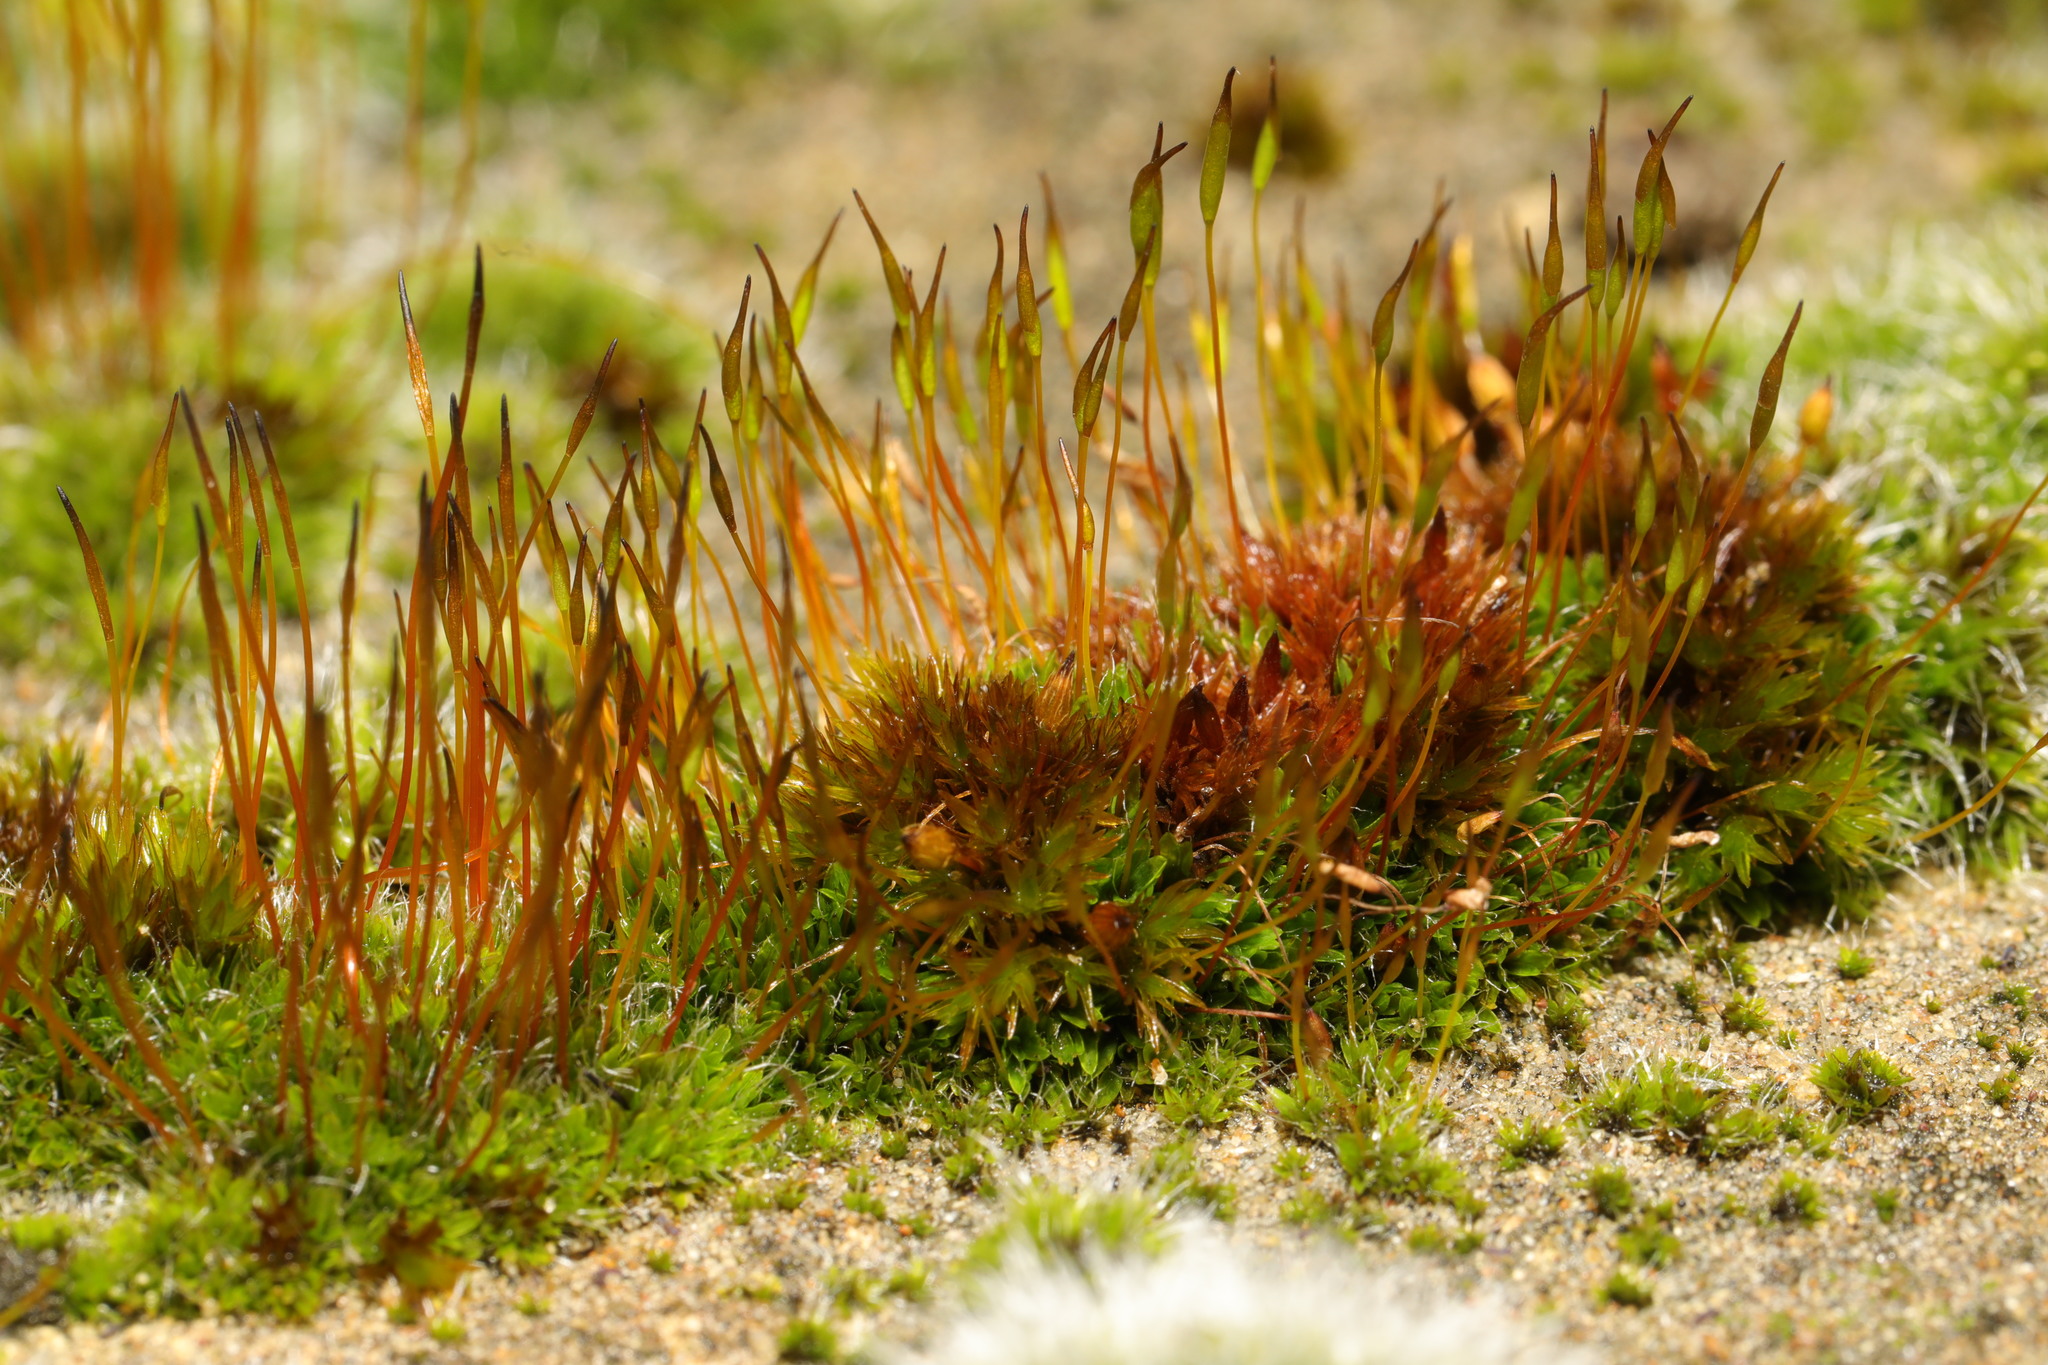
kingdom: Plantae
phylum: Bryophyta
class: Bryopsida
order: Pottiales
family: Pottiaceae
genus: Tortula
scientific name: Tortula muralis
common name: Wall screw-moss
